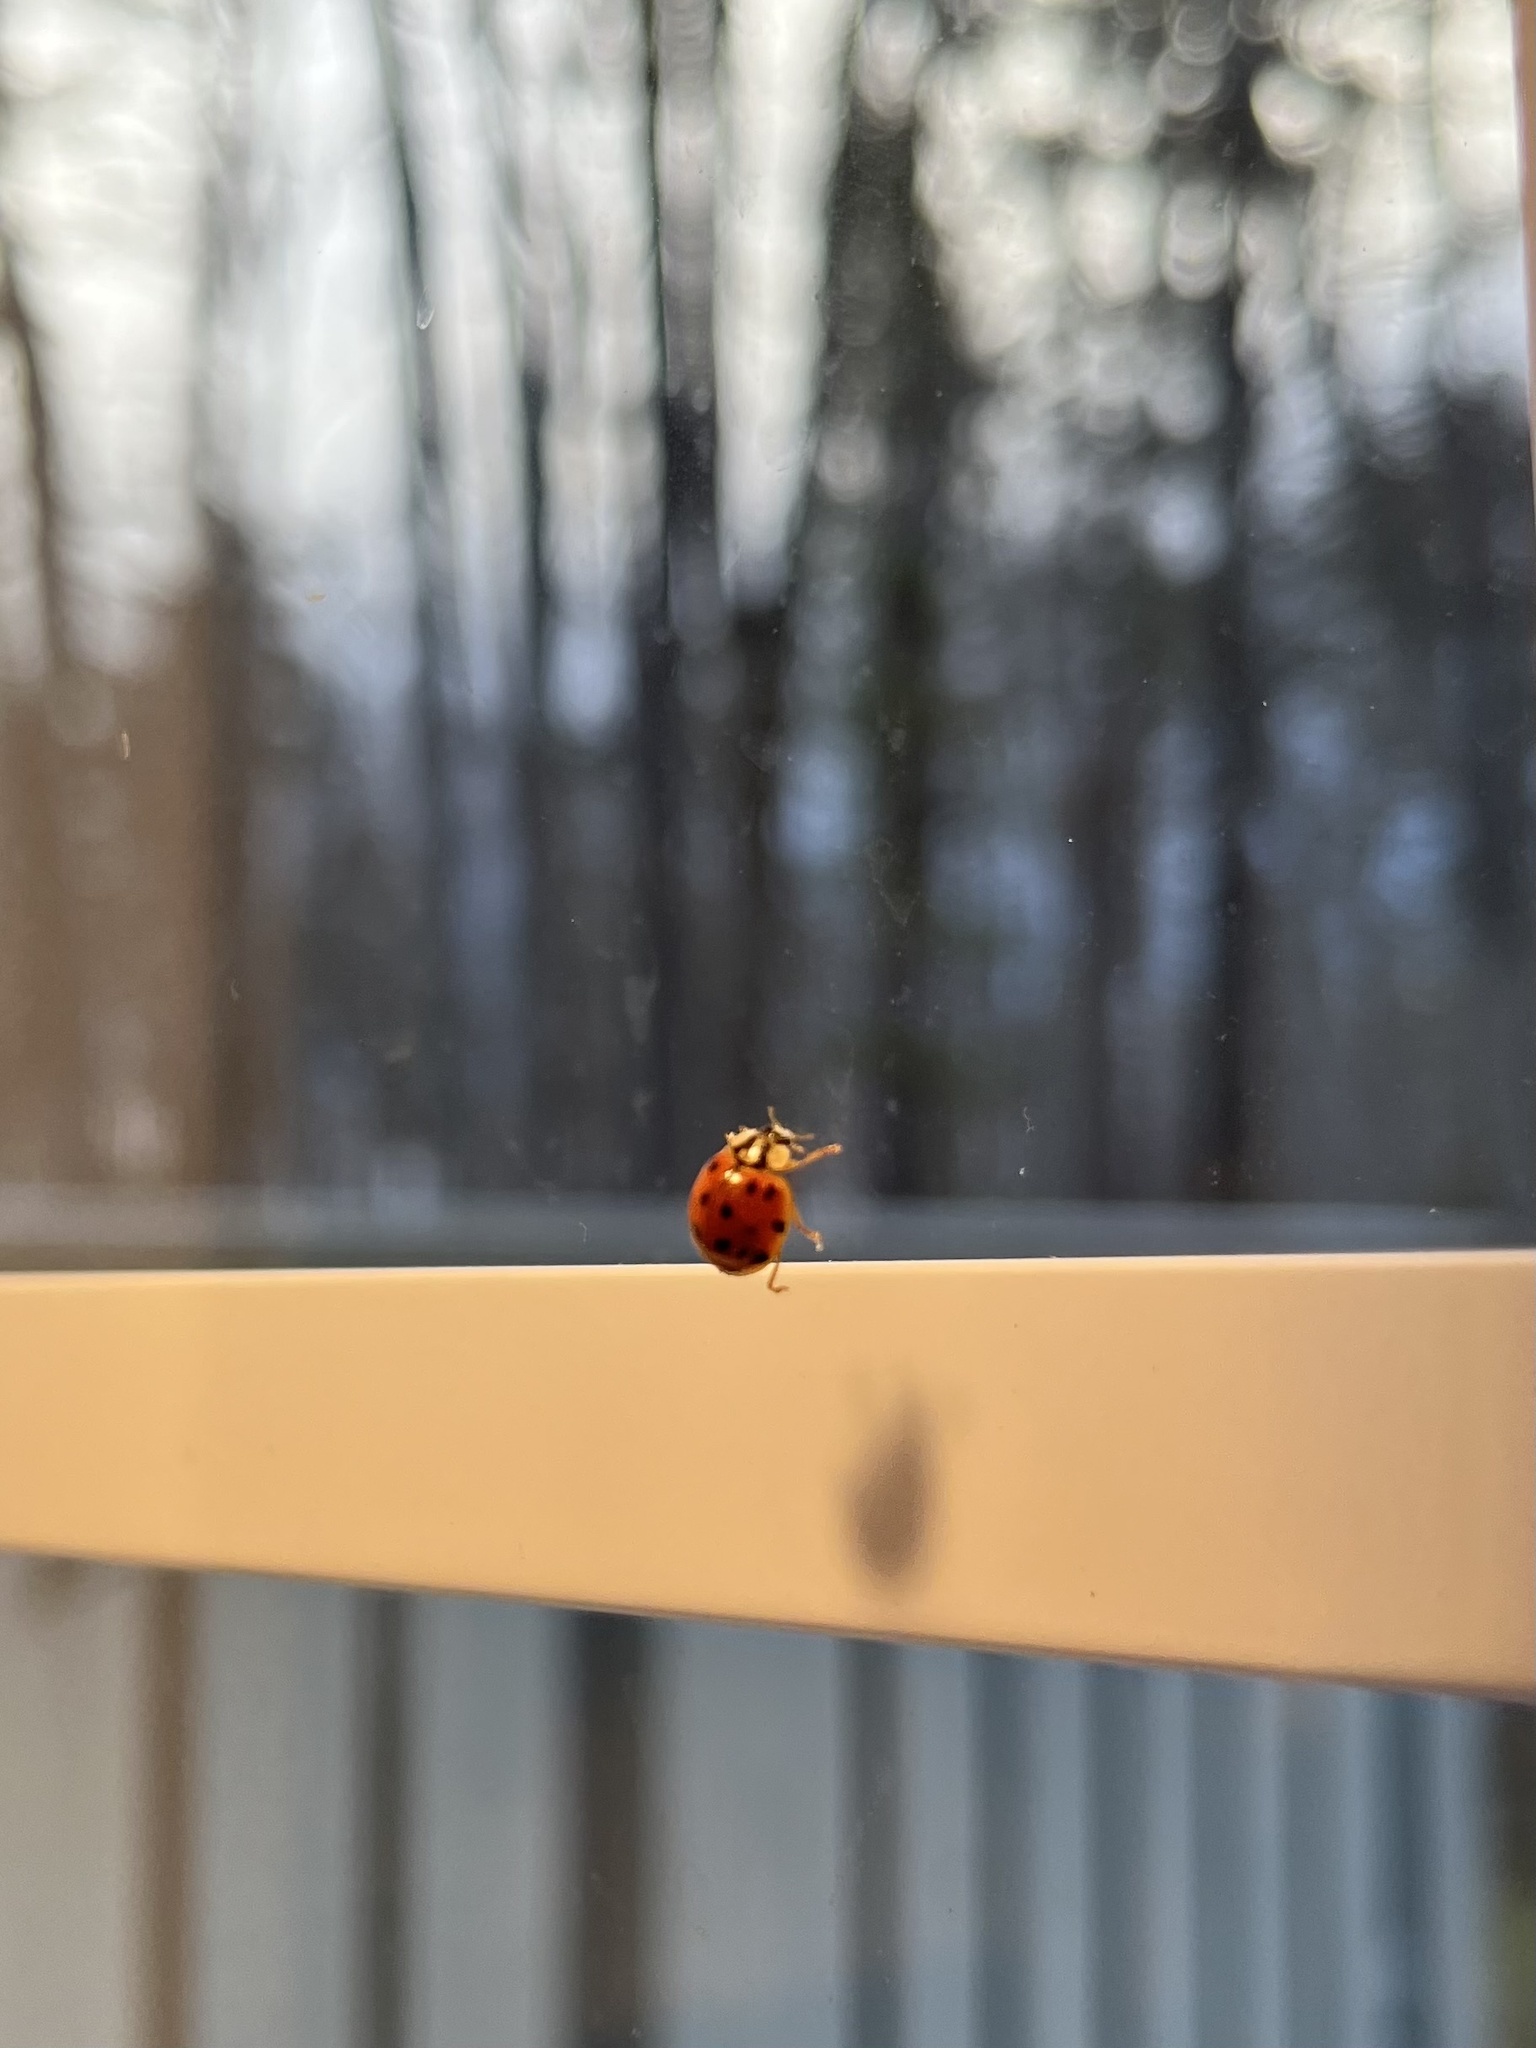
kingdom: Animalia
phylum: Arthropoda
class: Insecta
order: Coleoptera
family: Coccinellidae
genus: Harmonia
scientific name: Harmonia axyridis
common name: Harlequin ladybird
